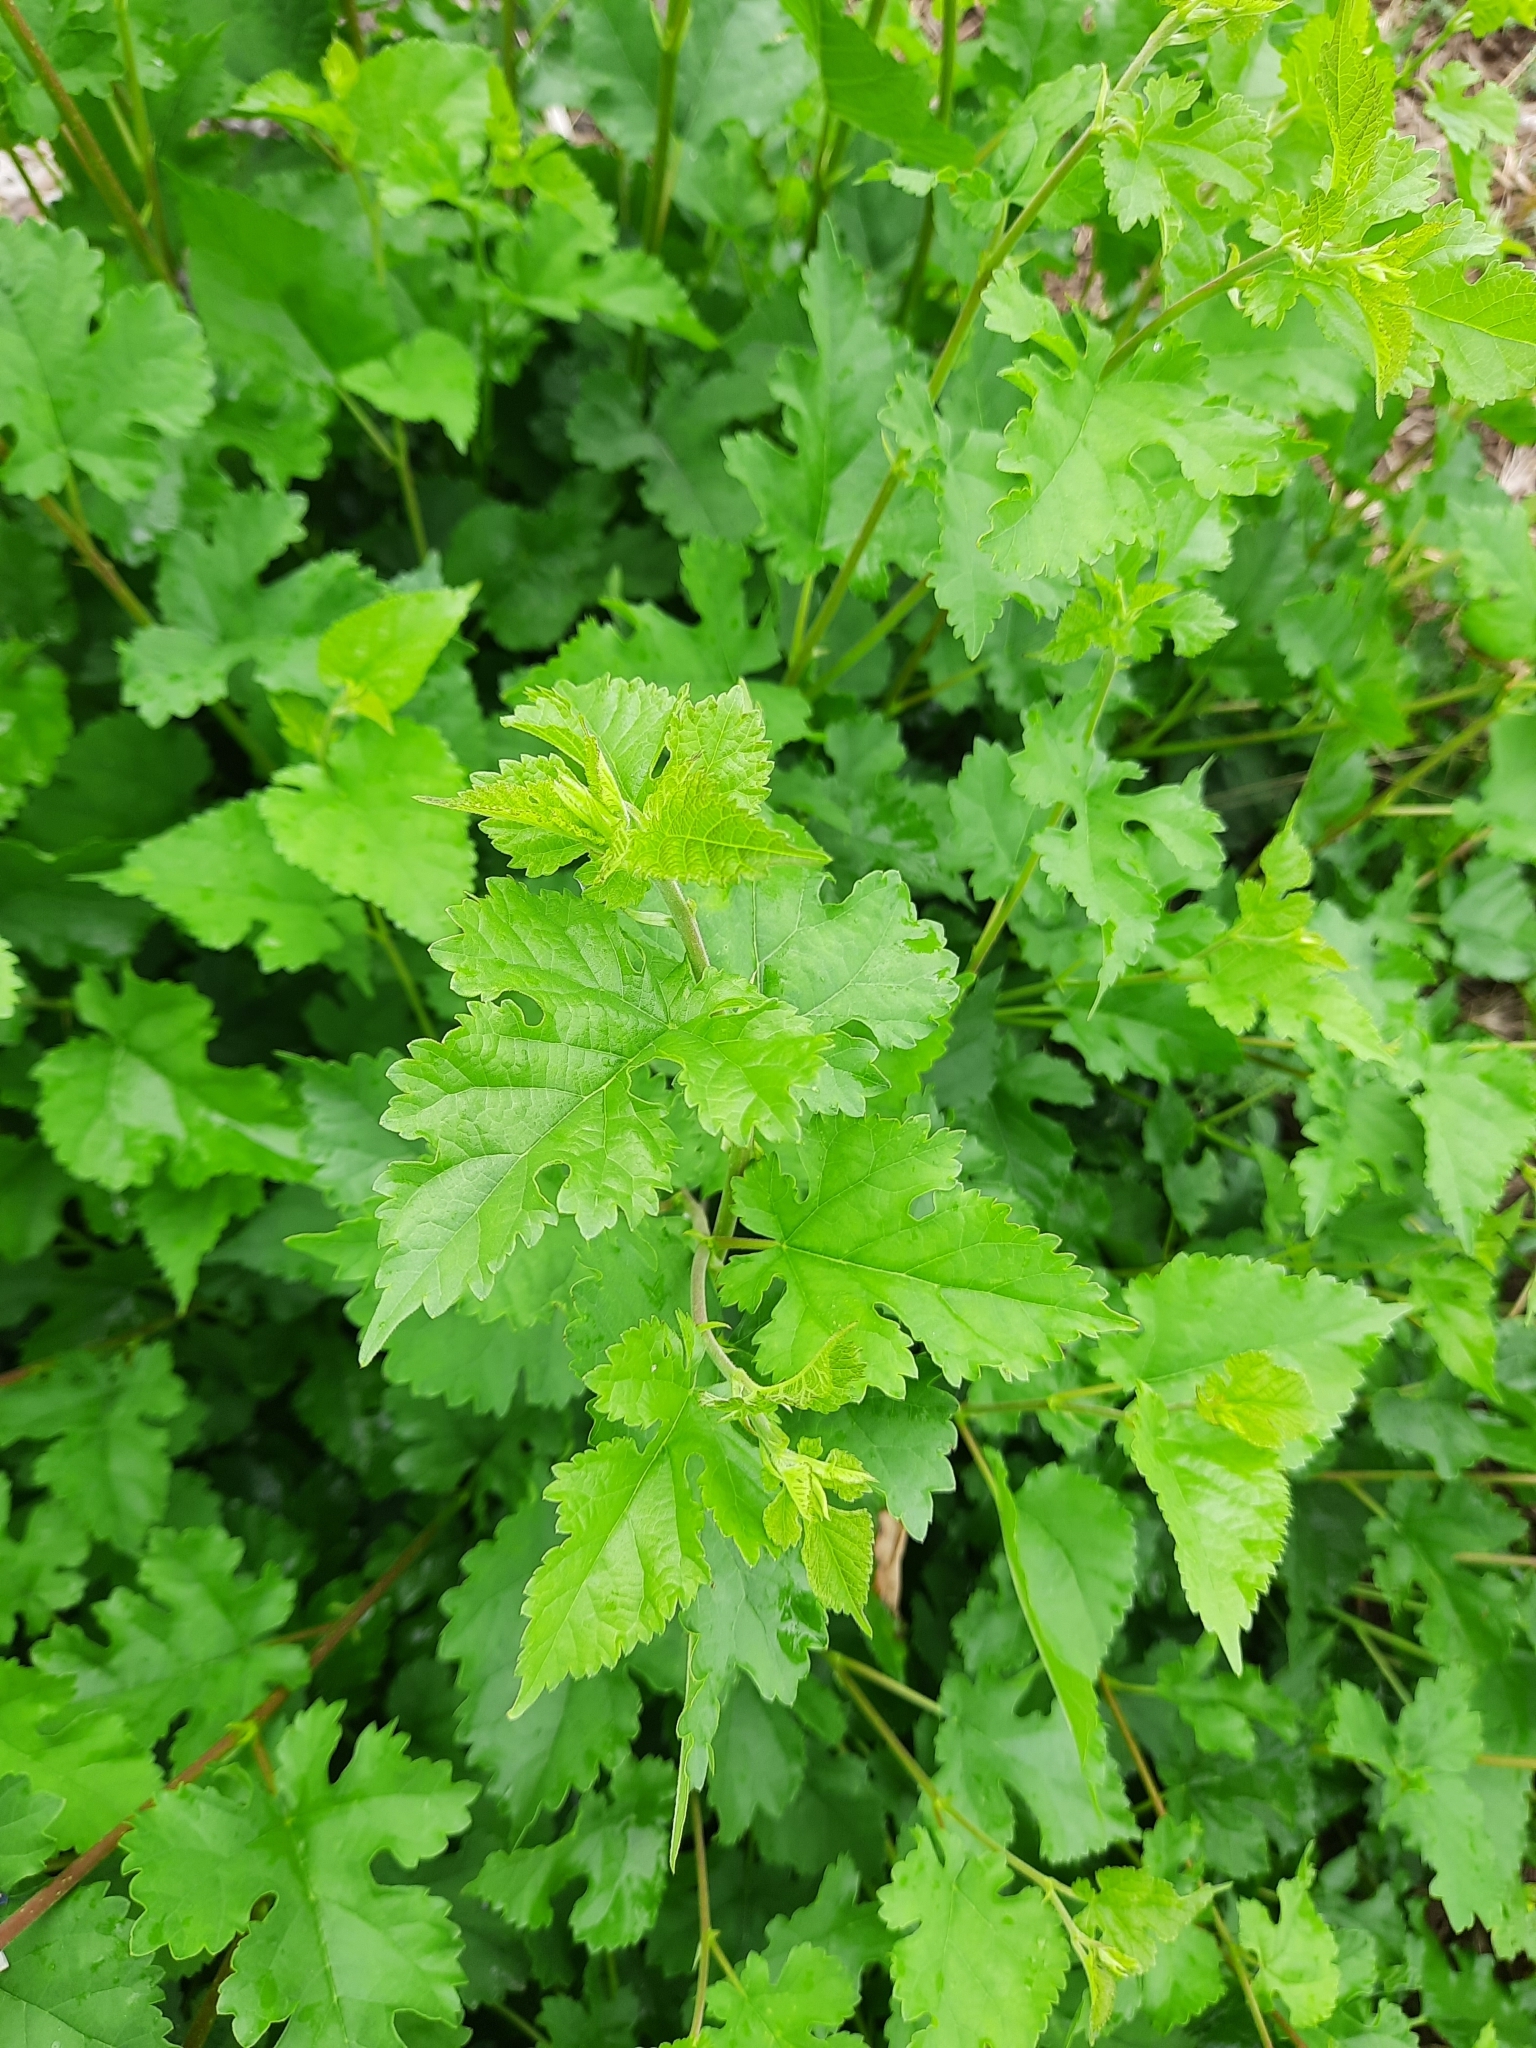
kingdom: Plantae
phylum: Tracheophyta
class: Magnoliopsida
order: Rosales
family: Moraceae
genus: Morus
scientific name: Morus alba
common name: White mulberry
